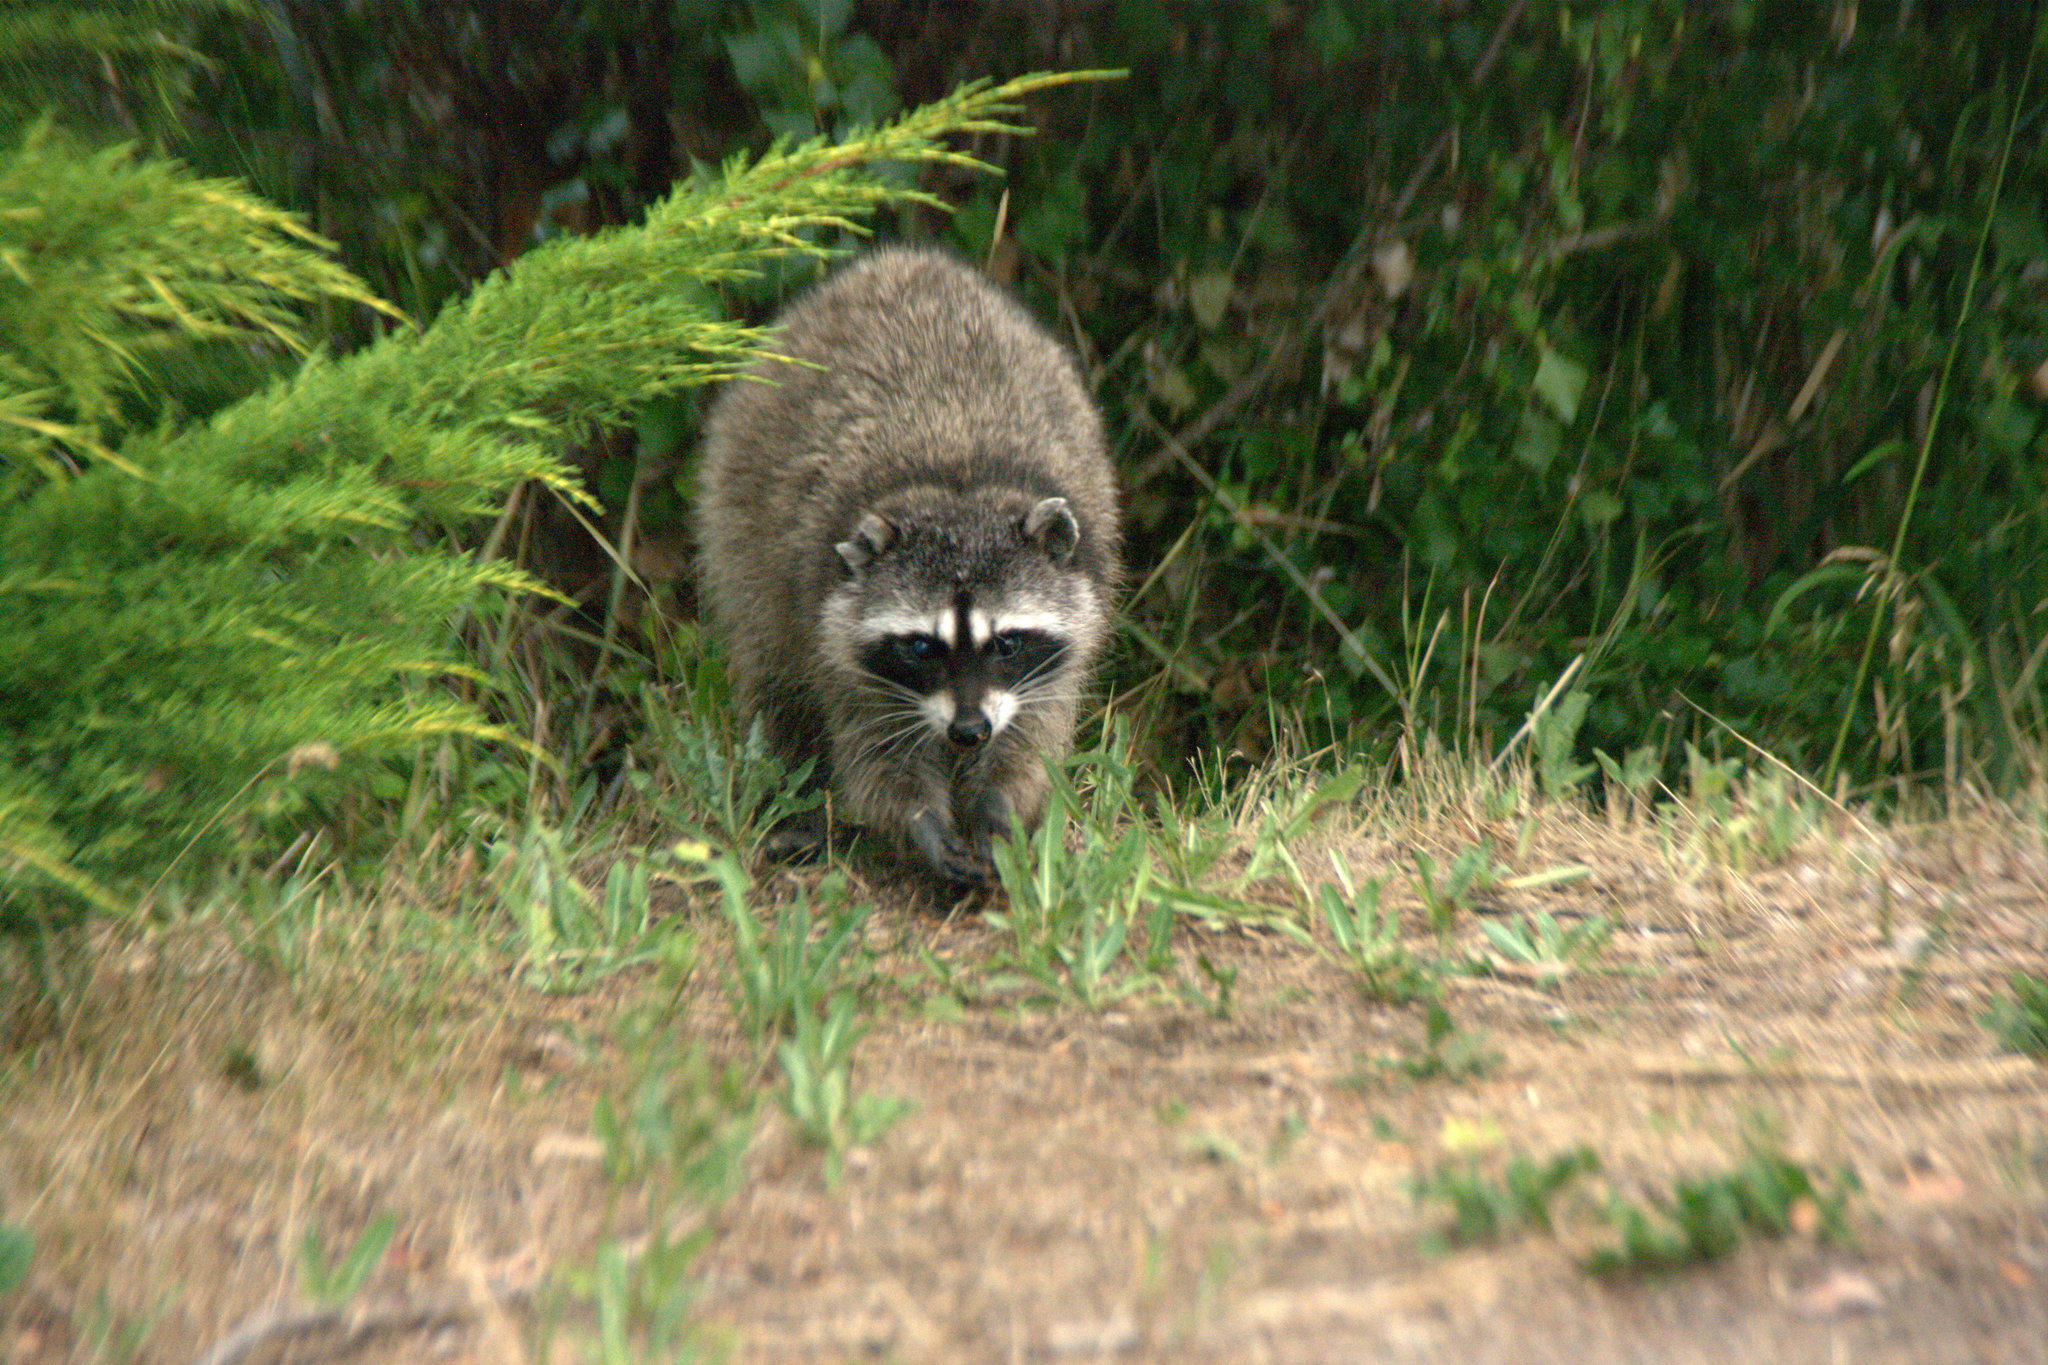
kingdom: Animalia
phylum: Chordata
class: Mammalia
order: Carnivora
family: Procyonidae
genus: Procyon
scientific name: Procyon lotor
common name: Raccoon
